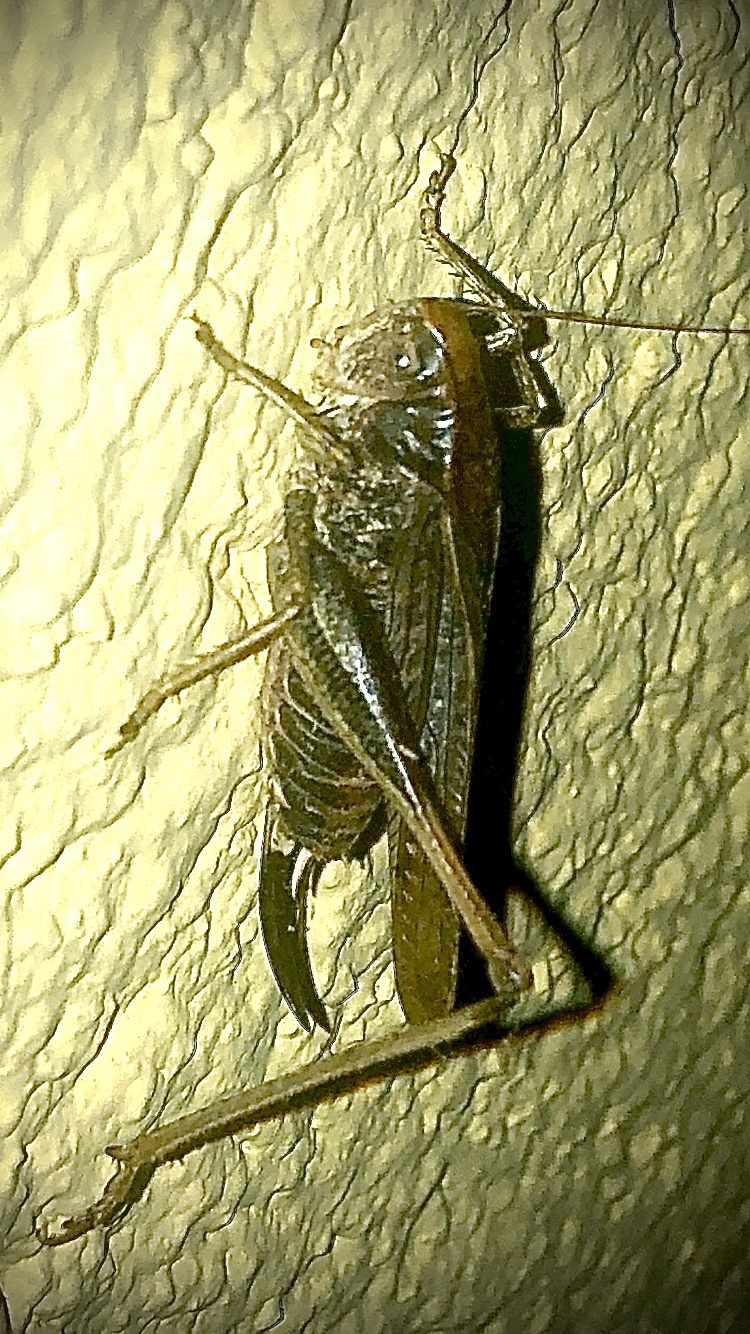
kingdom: Animalia
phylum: Arthropoda
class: Insecta
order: Orthoptera
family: Tettigoniidae
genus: Platycleis
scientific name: Platycleis albopunctata
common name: Grey bush-cricket
